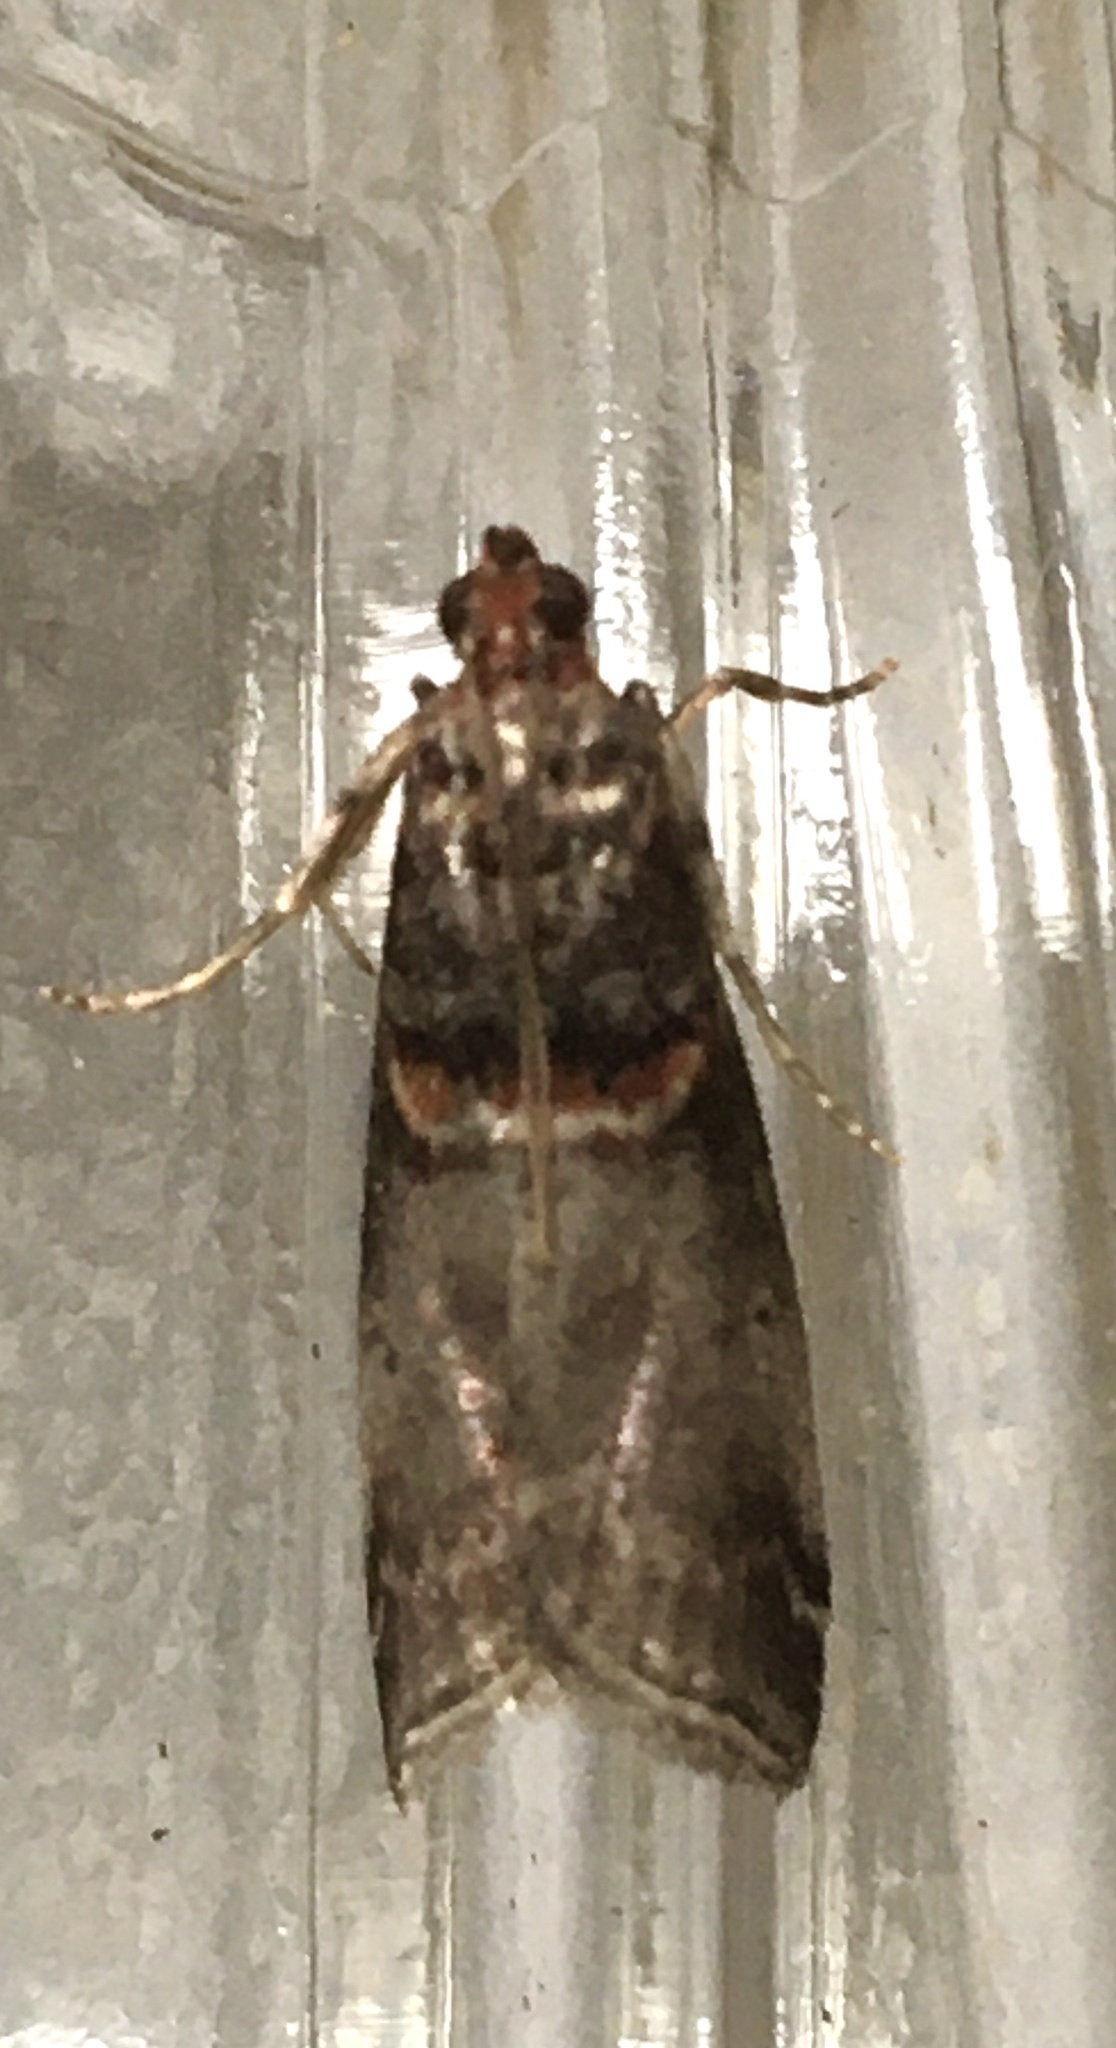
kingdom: Animalia
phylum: Arthropoda
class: Insecta
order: Lepidoptera
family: Pyralidae
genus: Acrobasis
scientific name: Acrobasis advenella
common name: Grey knot-horn
